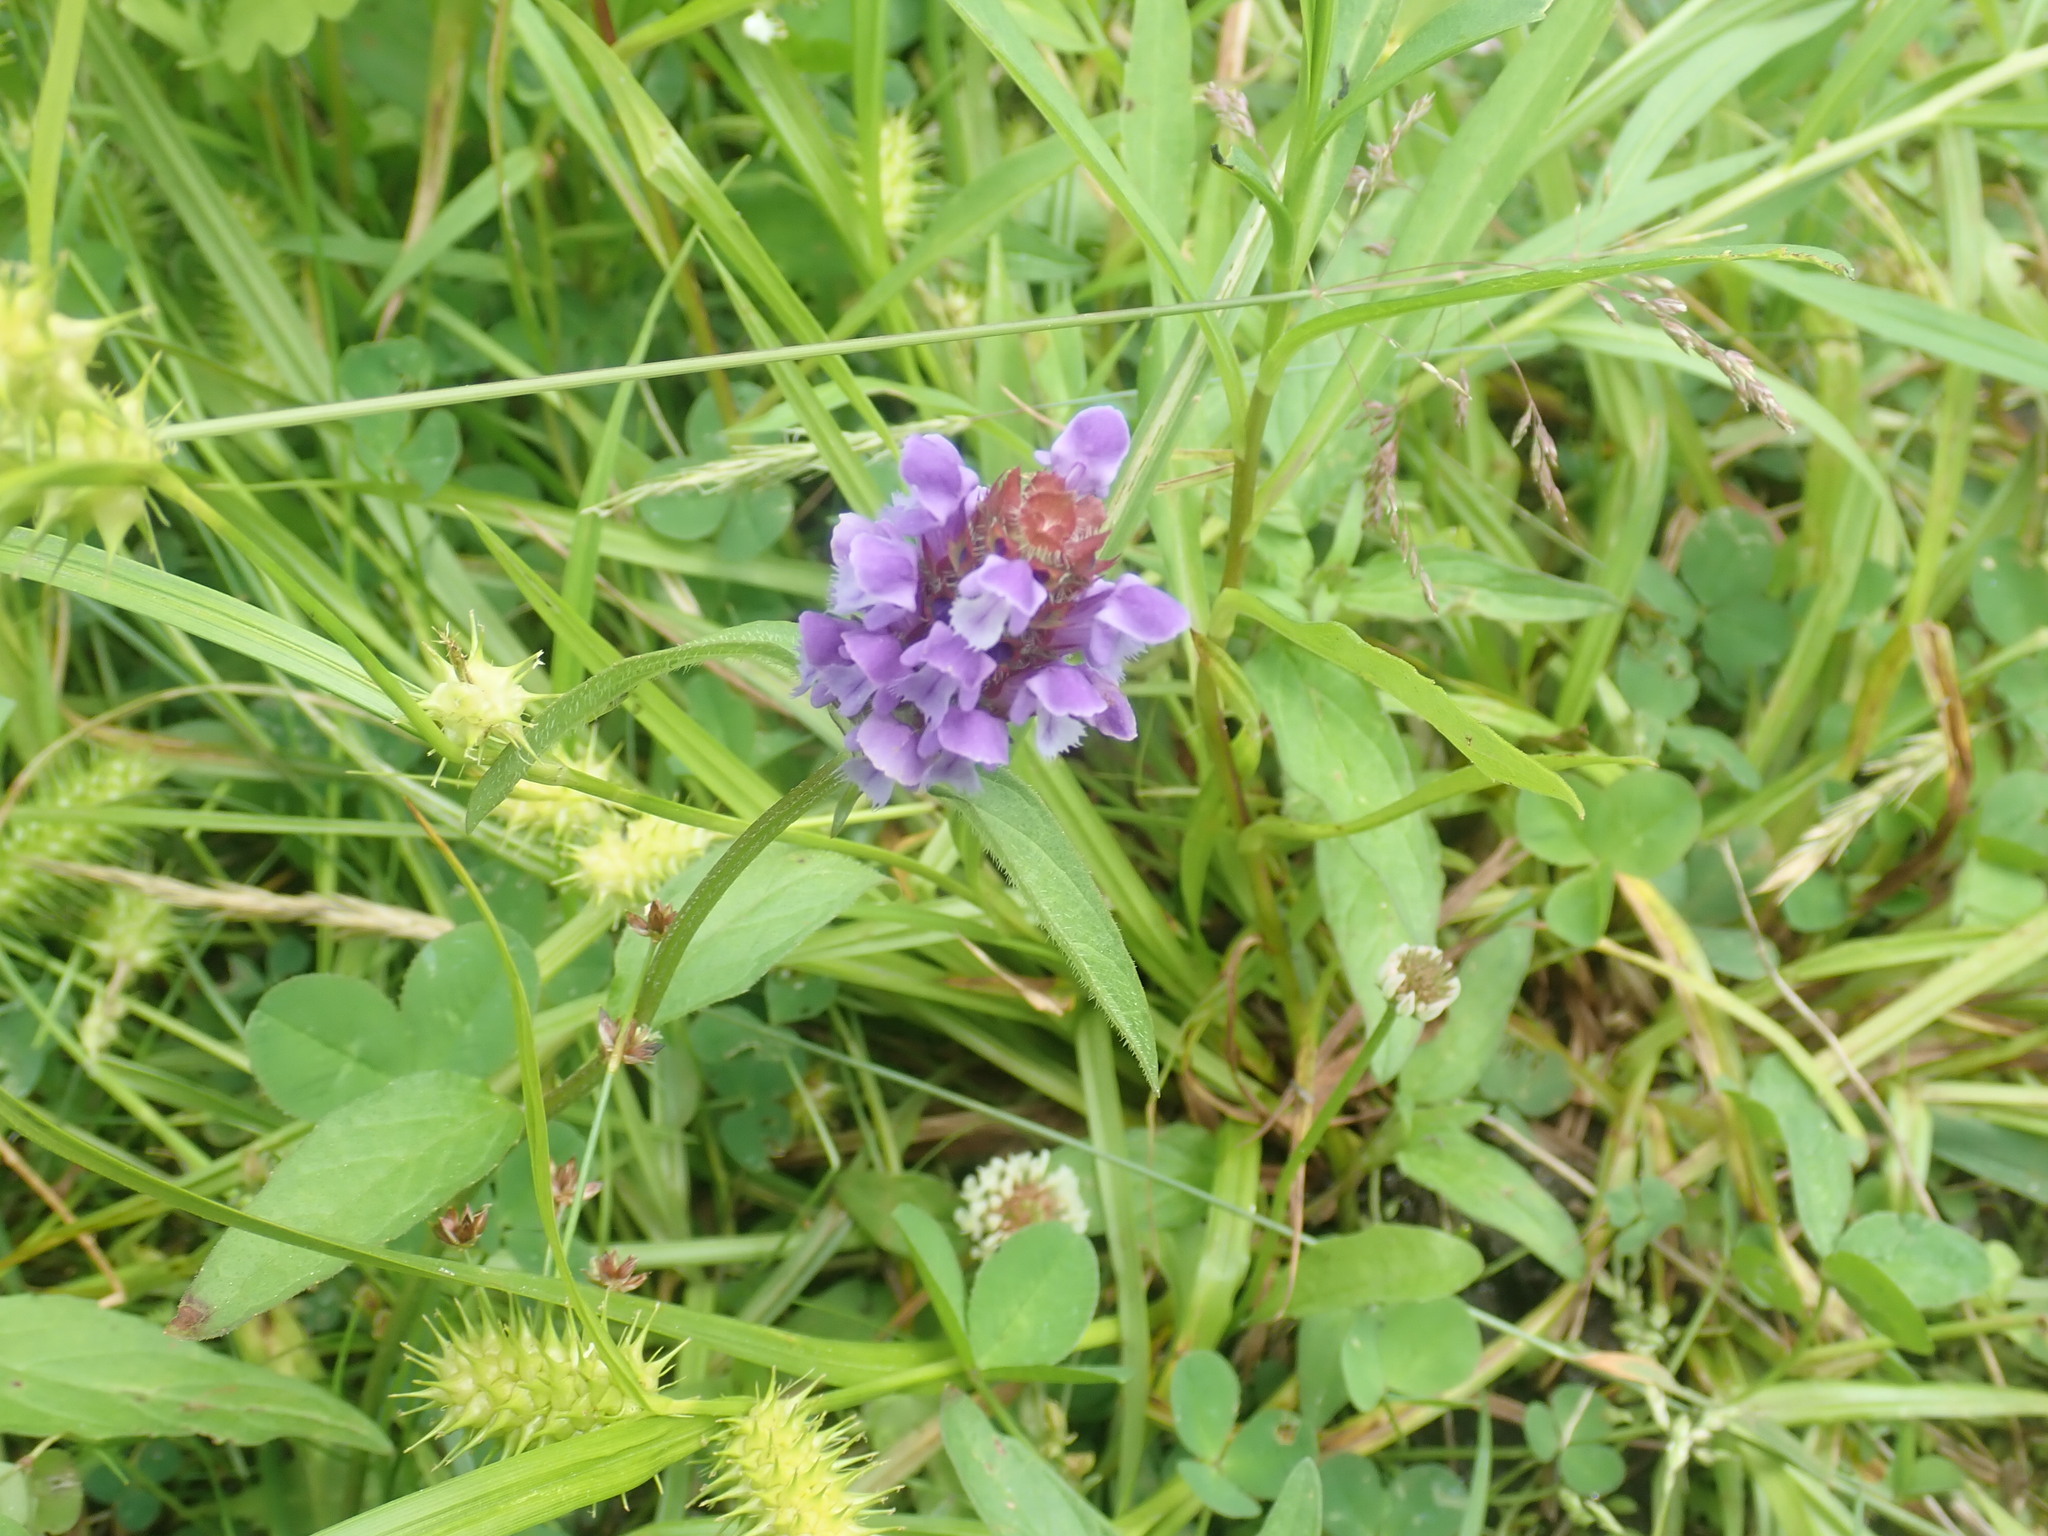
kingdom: Plantae
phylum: Tracheophyta
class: Magnoliopsida
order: Lamiales
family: Lamiaceae
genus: Prunella
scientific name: Prunella vulgaris
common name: Heal-all
